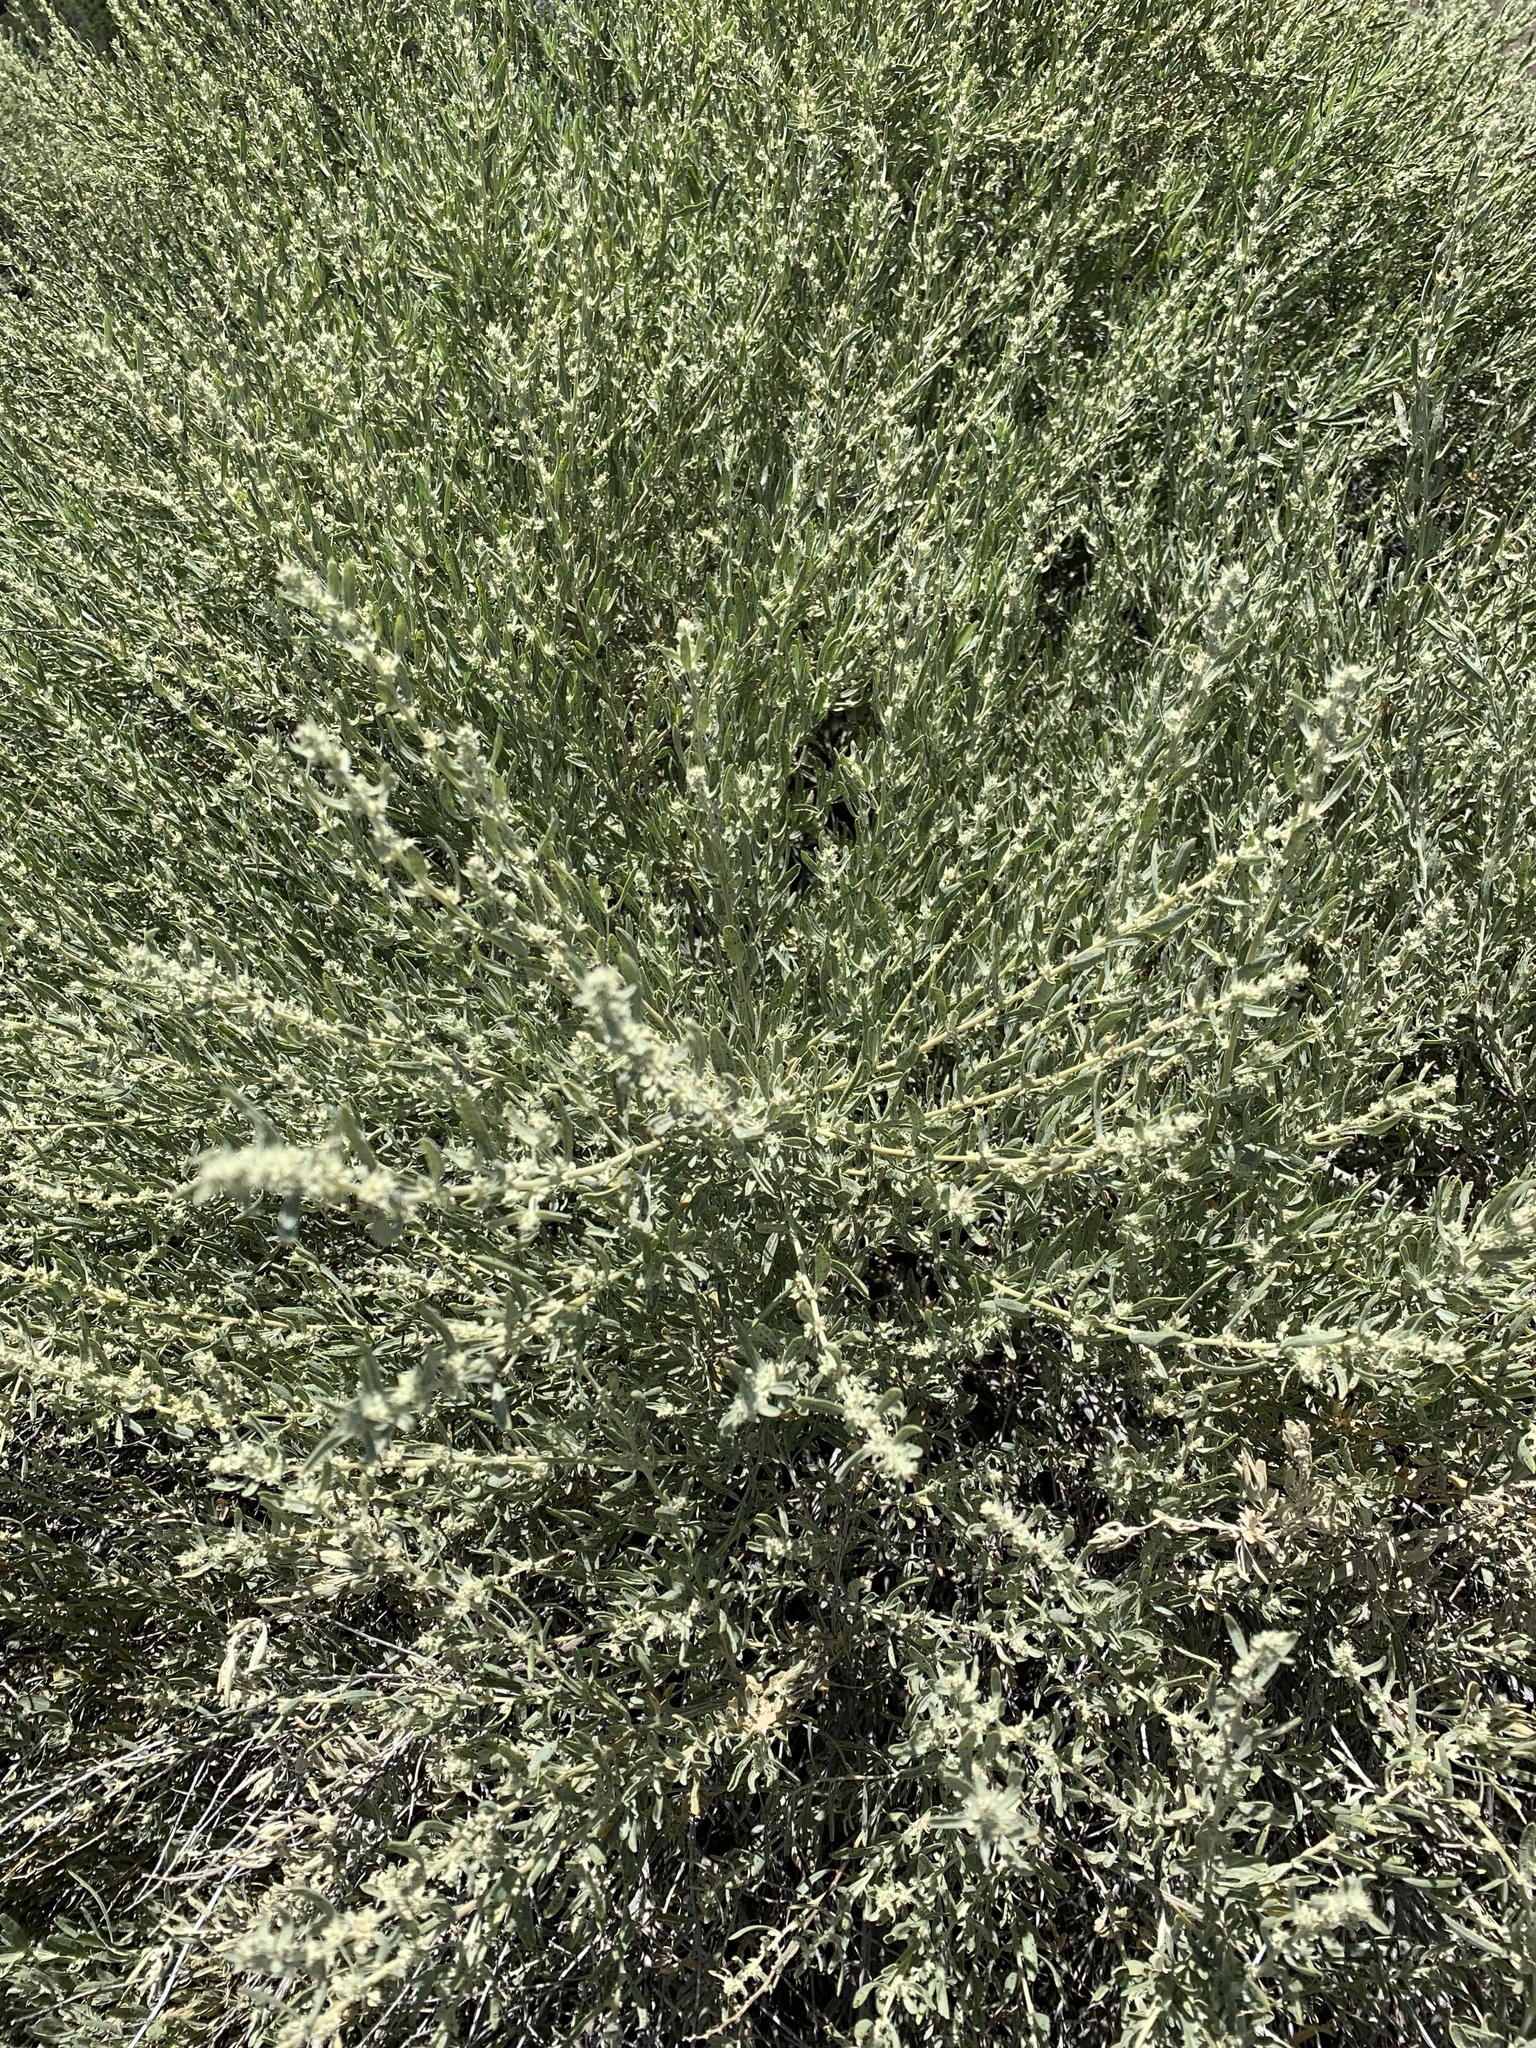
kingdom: Plantae
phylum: Tracheophyta
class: Magnoliopsida
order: Caryophyllales
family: Amaranthaceae
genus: Atriplex
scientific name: Atriplex canescens
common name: Four-wing saltbush
